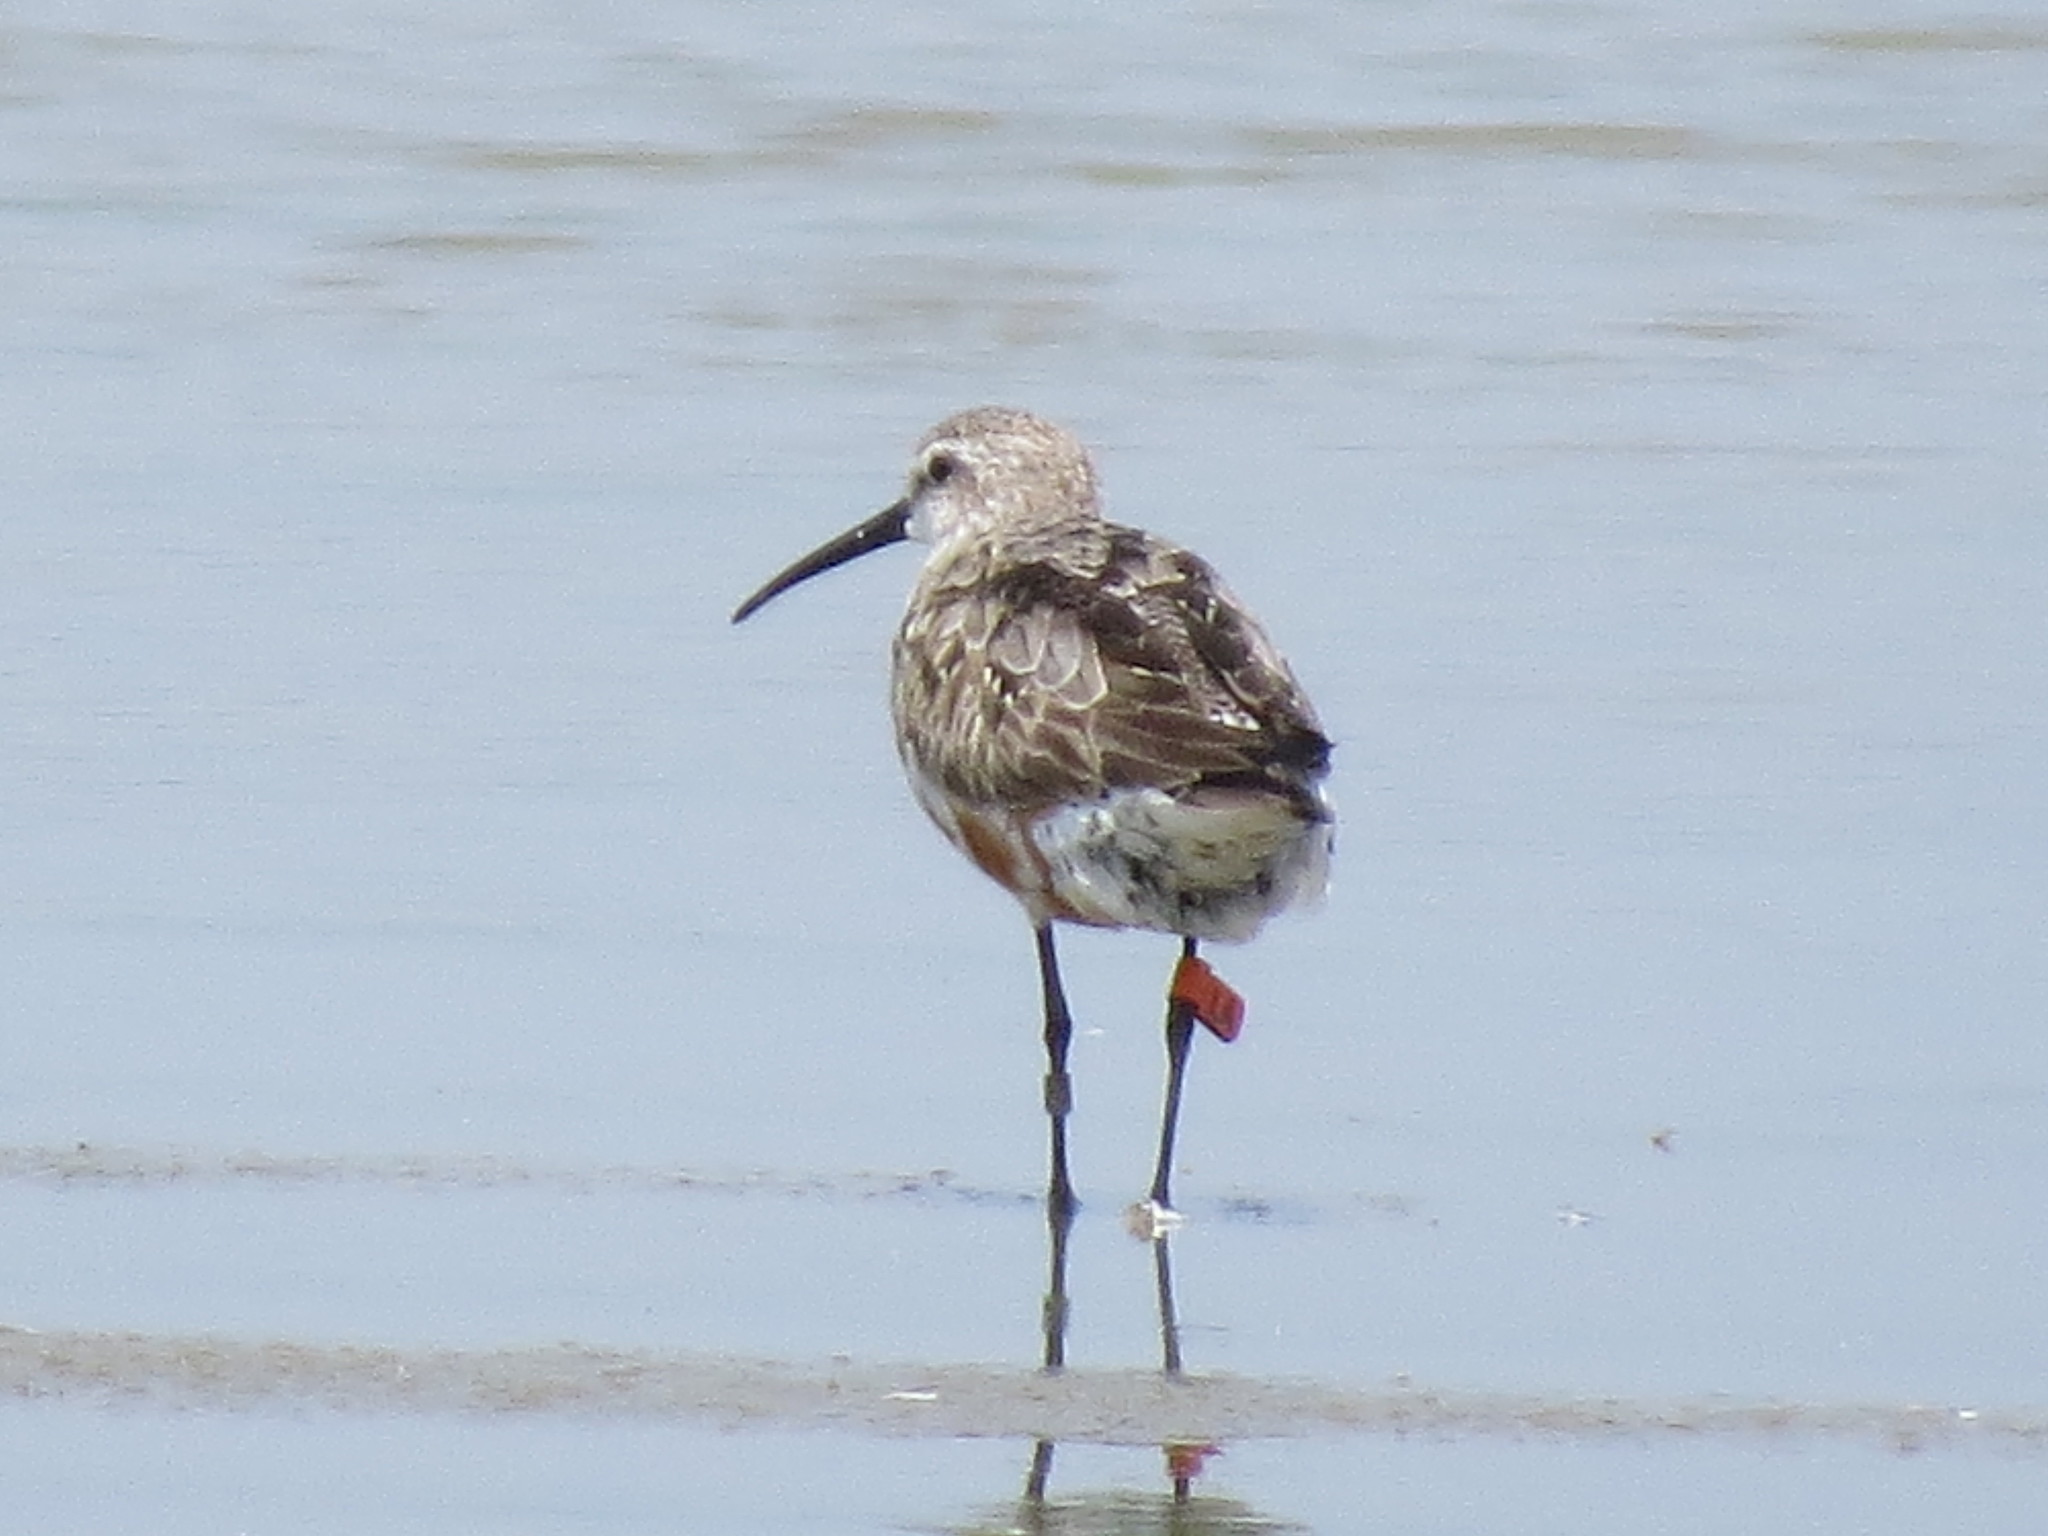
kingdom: Animalia
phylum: Chordata
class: Aves
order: Charadriiformes
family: Scolopacidae
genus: Calidris
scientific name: Calidris ferruginea
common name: Curlew sandpiper
